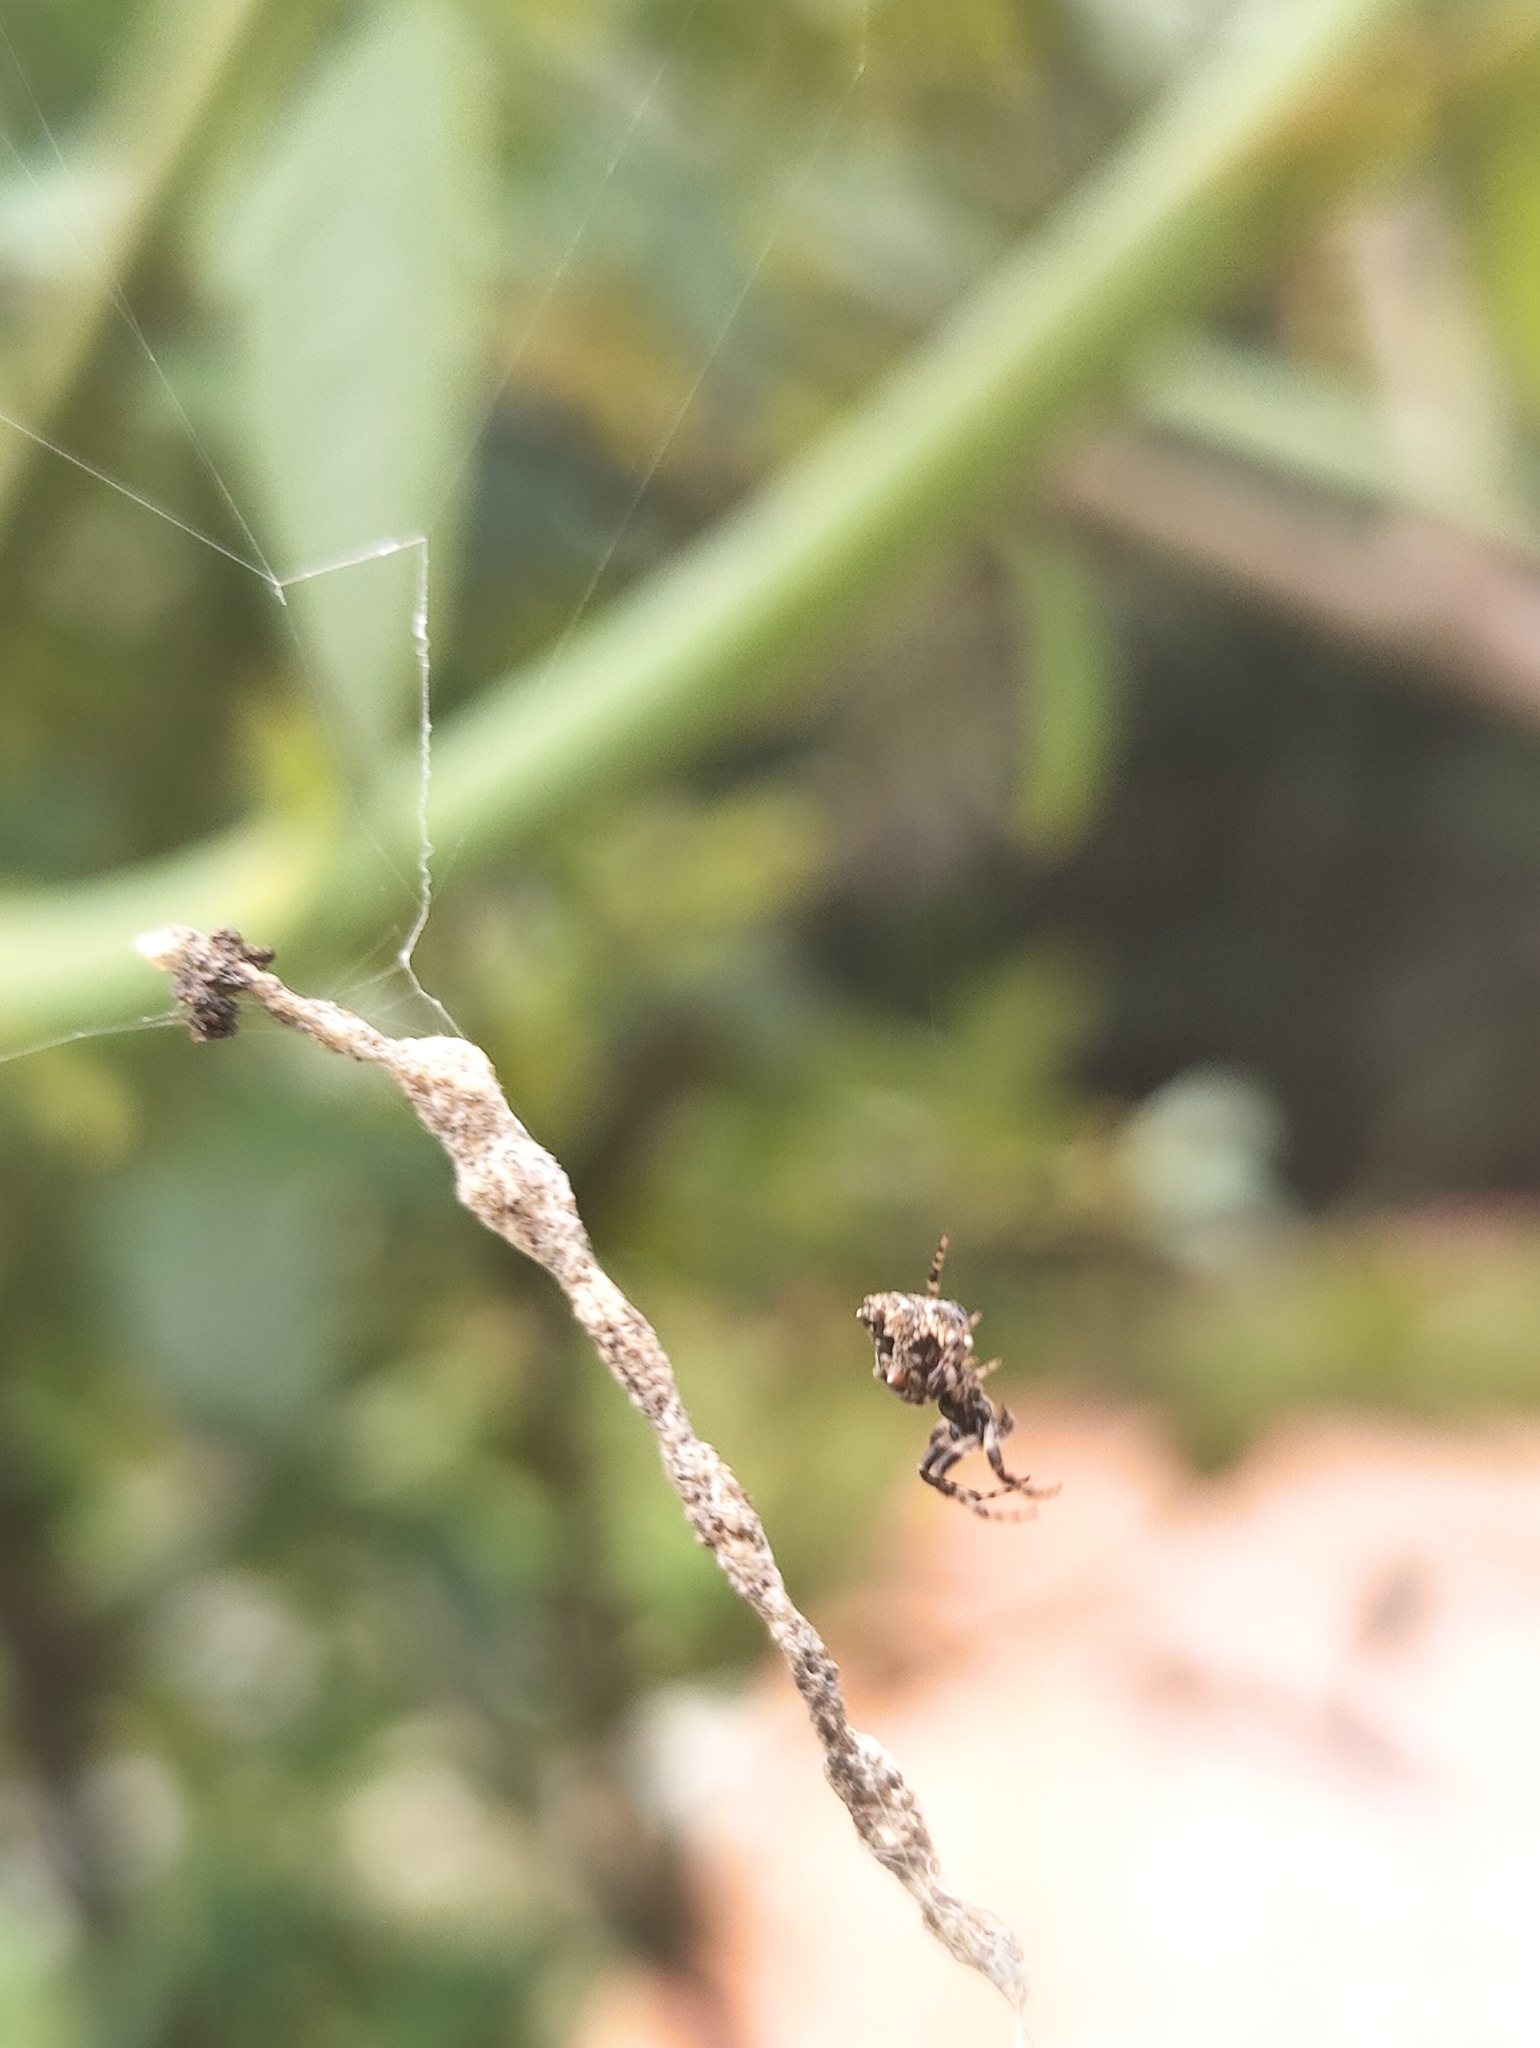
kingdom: Animalia
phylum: Arthropoda
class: Arachnida
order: Araneae
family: Araneidae
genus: Cyclosa
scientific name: Cyclosa walckenaeri
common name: Orb weavers
